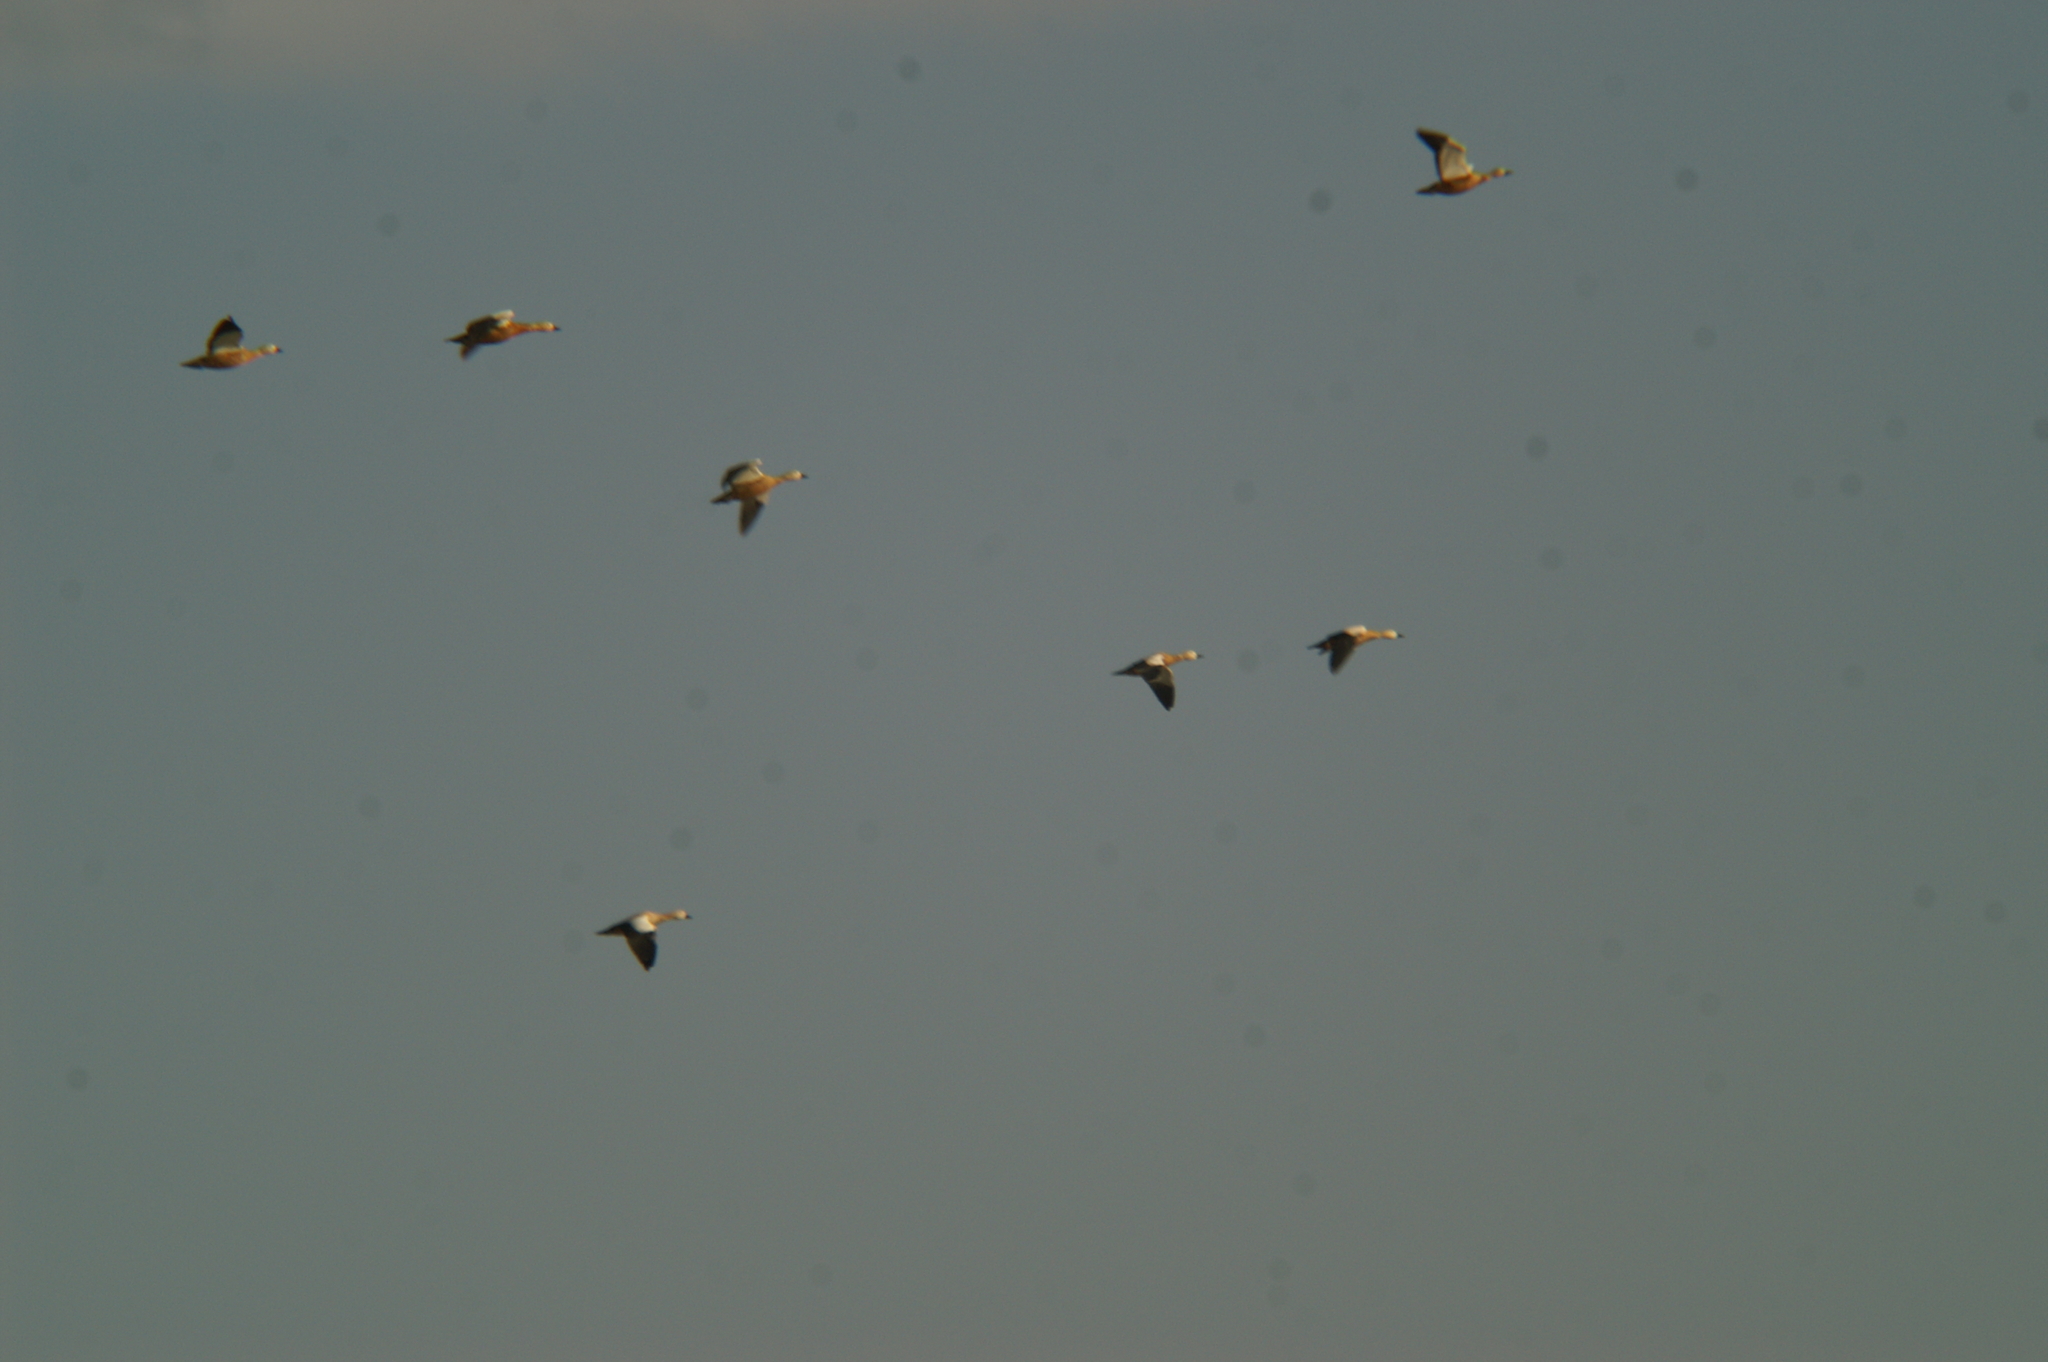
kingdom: Animalia
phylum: Chordata
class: Aves
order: Anseriformes
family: Anatidae
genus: Tadorna
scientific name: Tadorna ferruginea
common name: Ruddy shelduck
